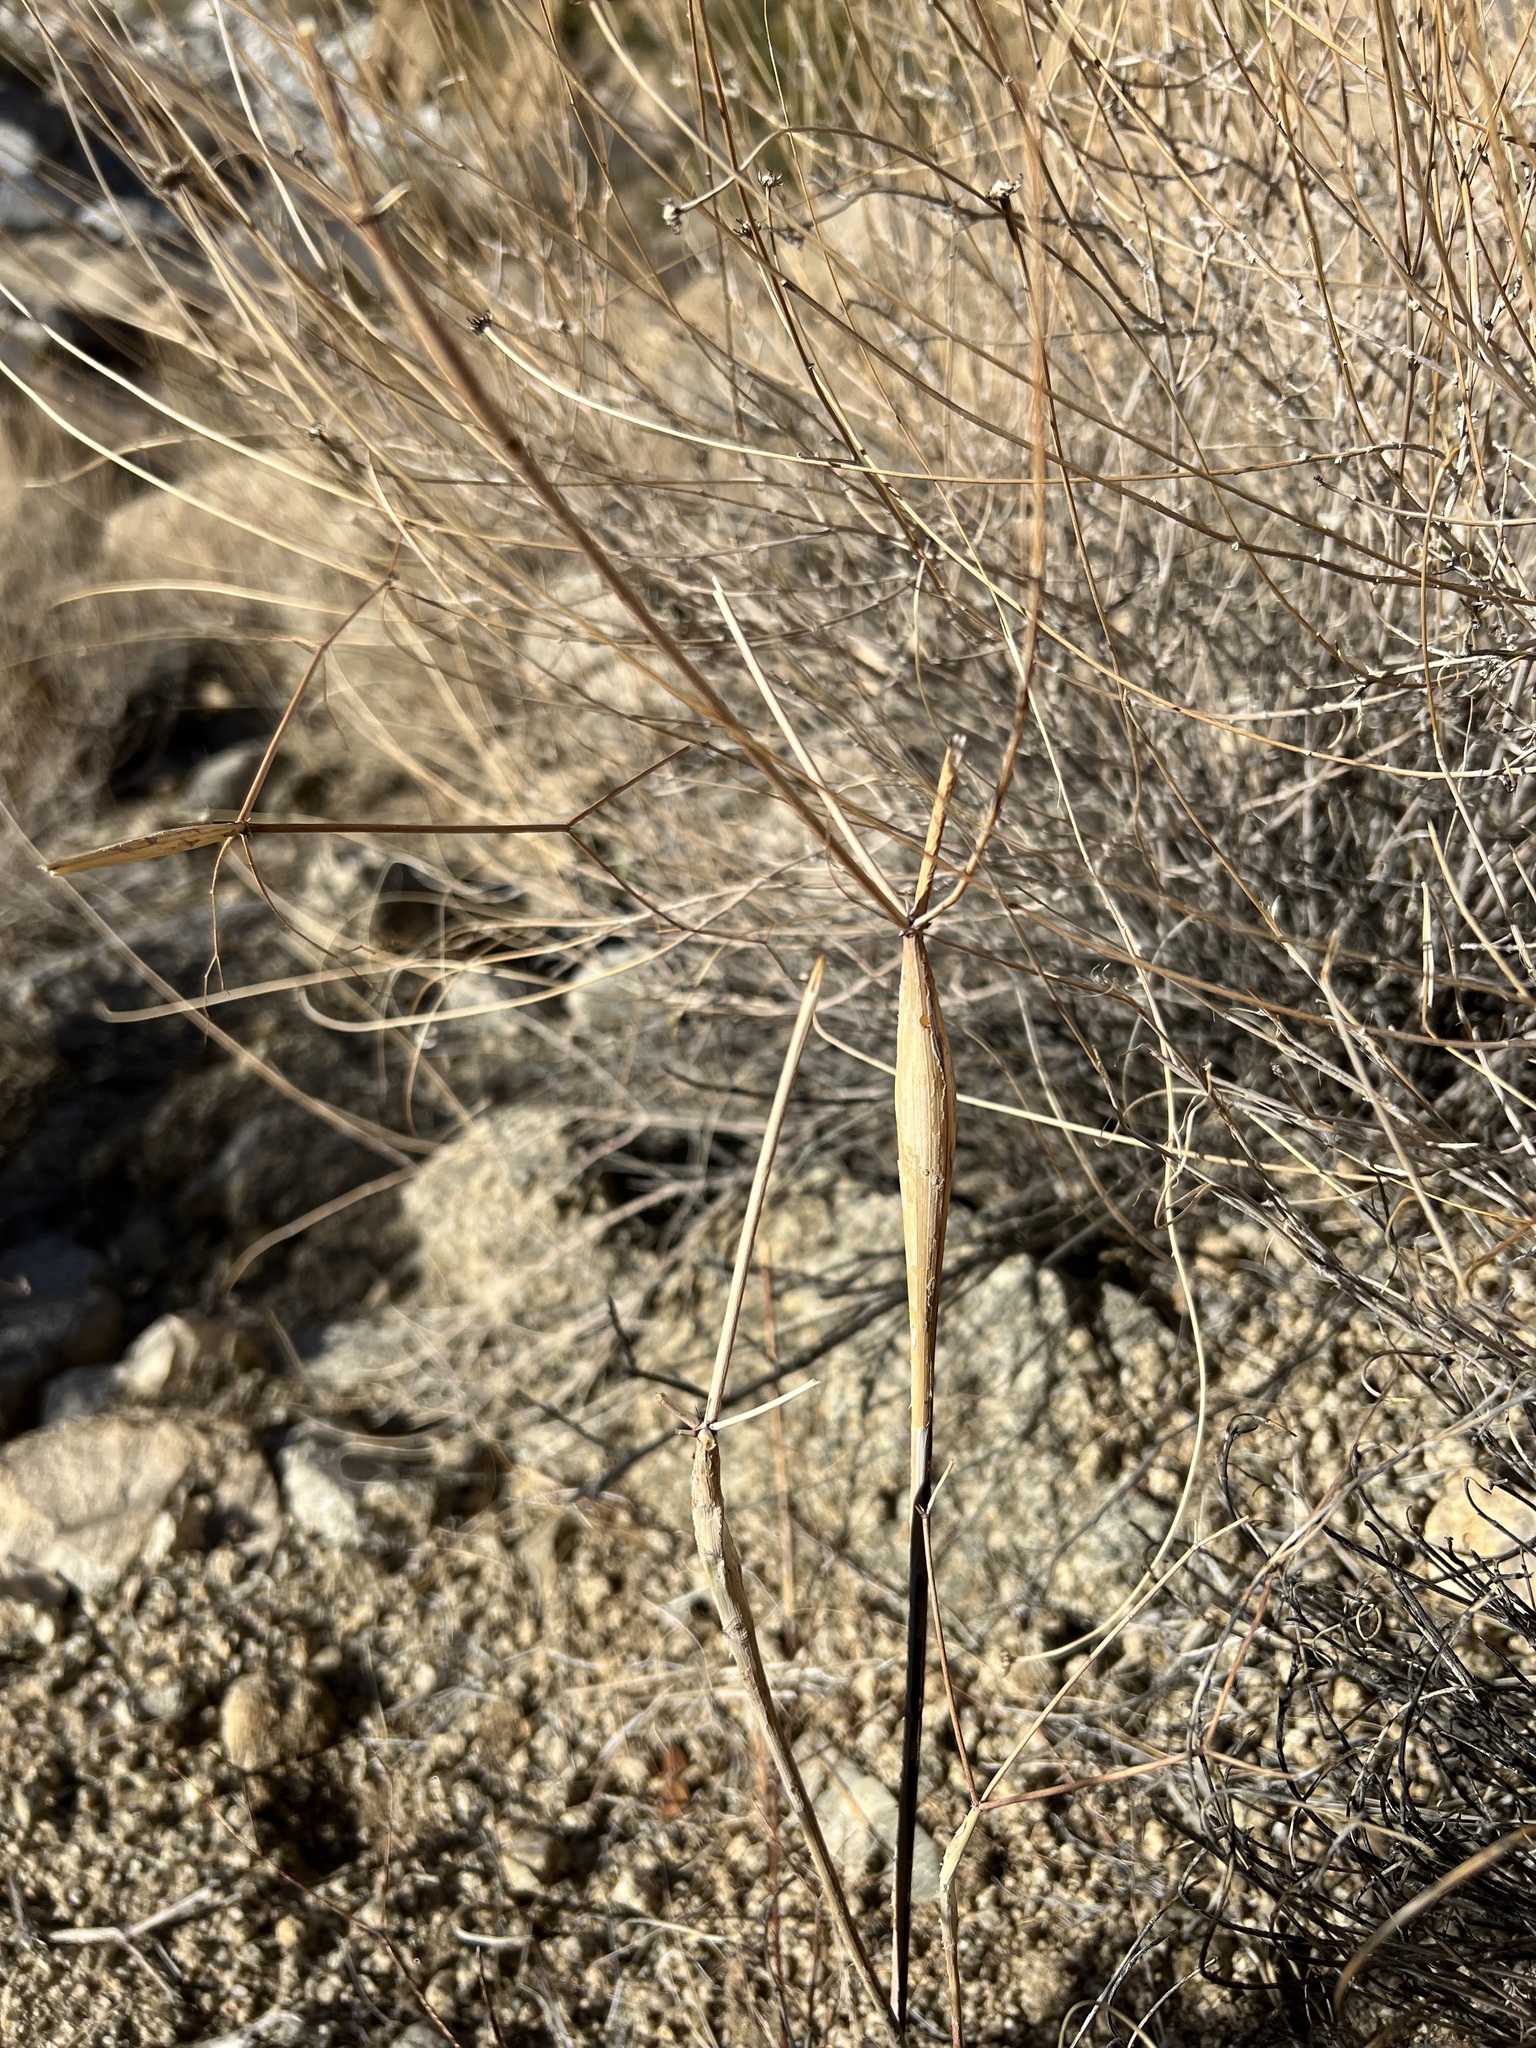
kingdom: Plantae
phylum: Tracheophyta
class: Magnoliopsida
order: Caryophyllales
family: Polygonaceae
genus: Eriogonum
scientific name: Eriogonum inflatum
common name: Desert trumpet
